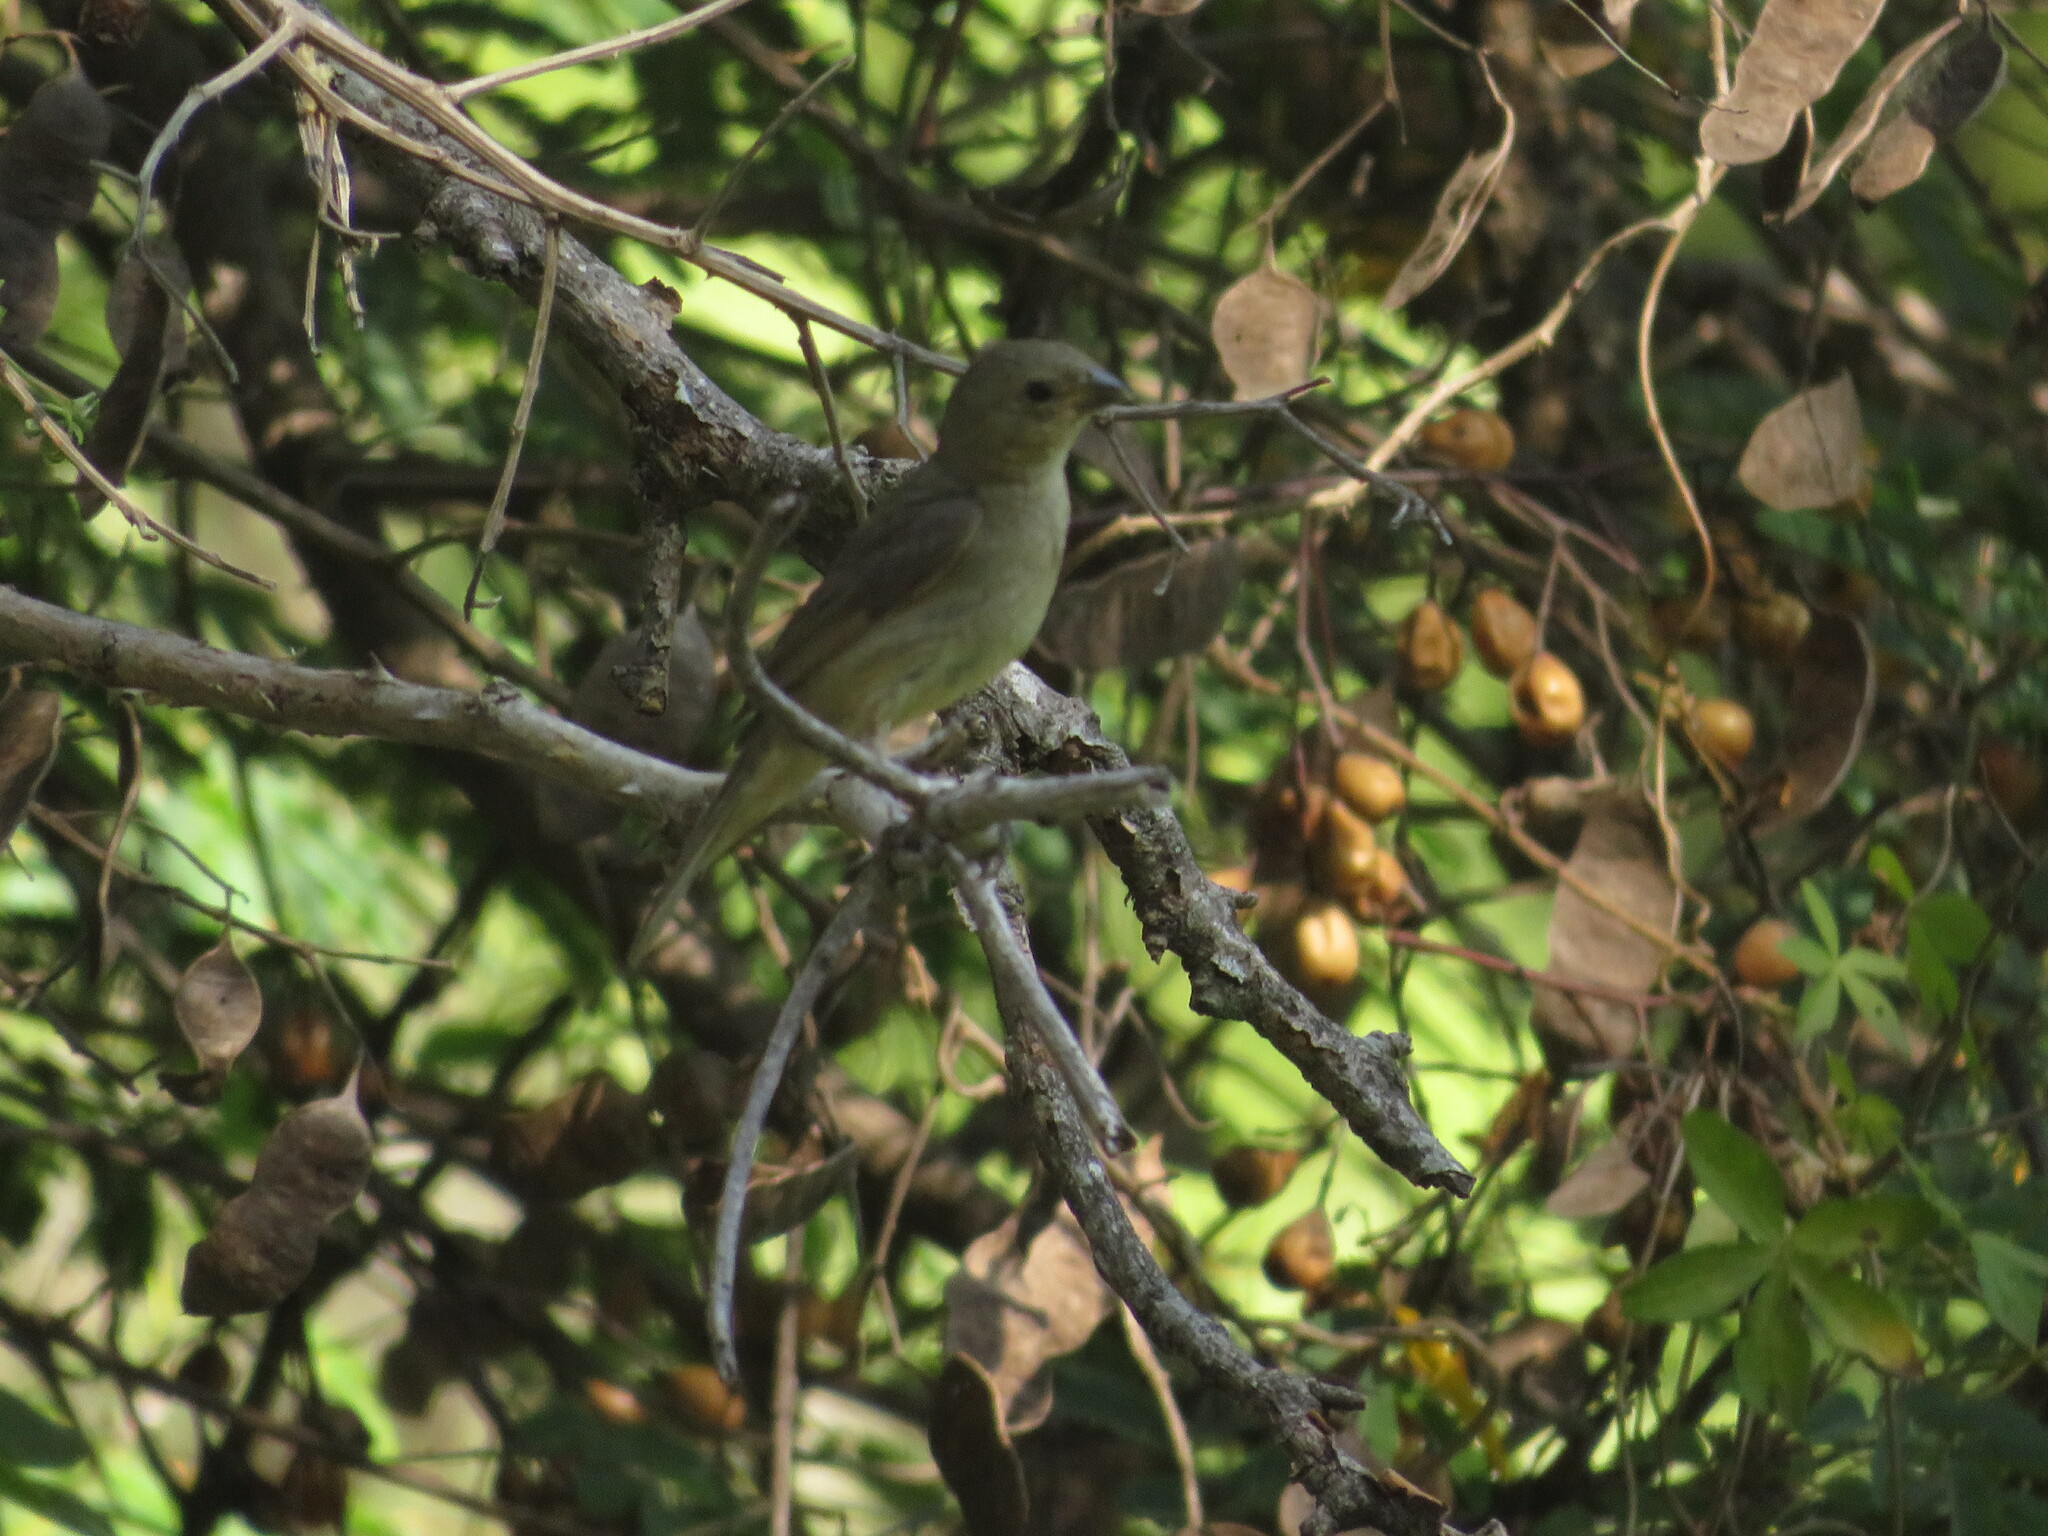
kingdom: Animalia
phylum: Chordata
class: Aves
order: Passeriformes
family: Thraupidae
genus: Sporophila
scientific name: Sporophila caerulescens
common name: Double-collared seedeater
